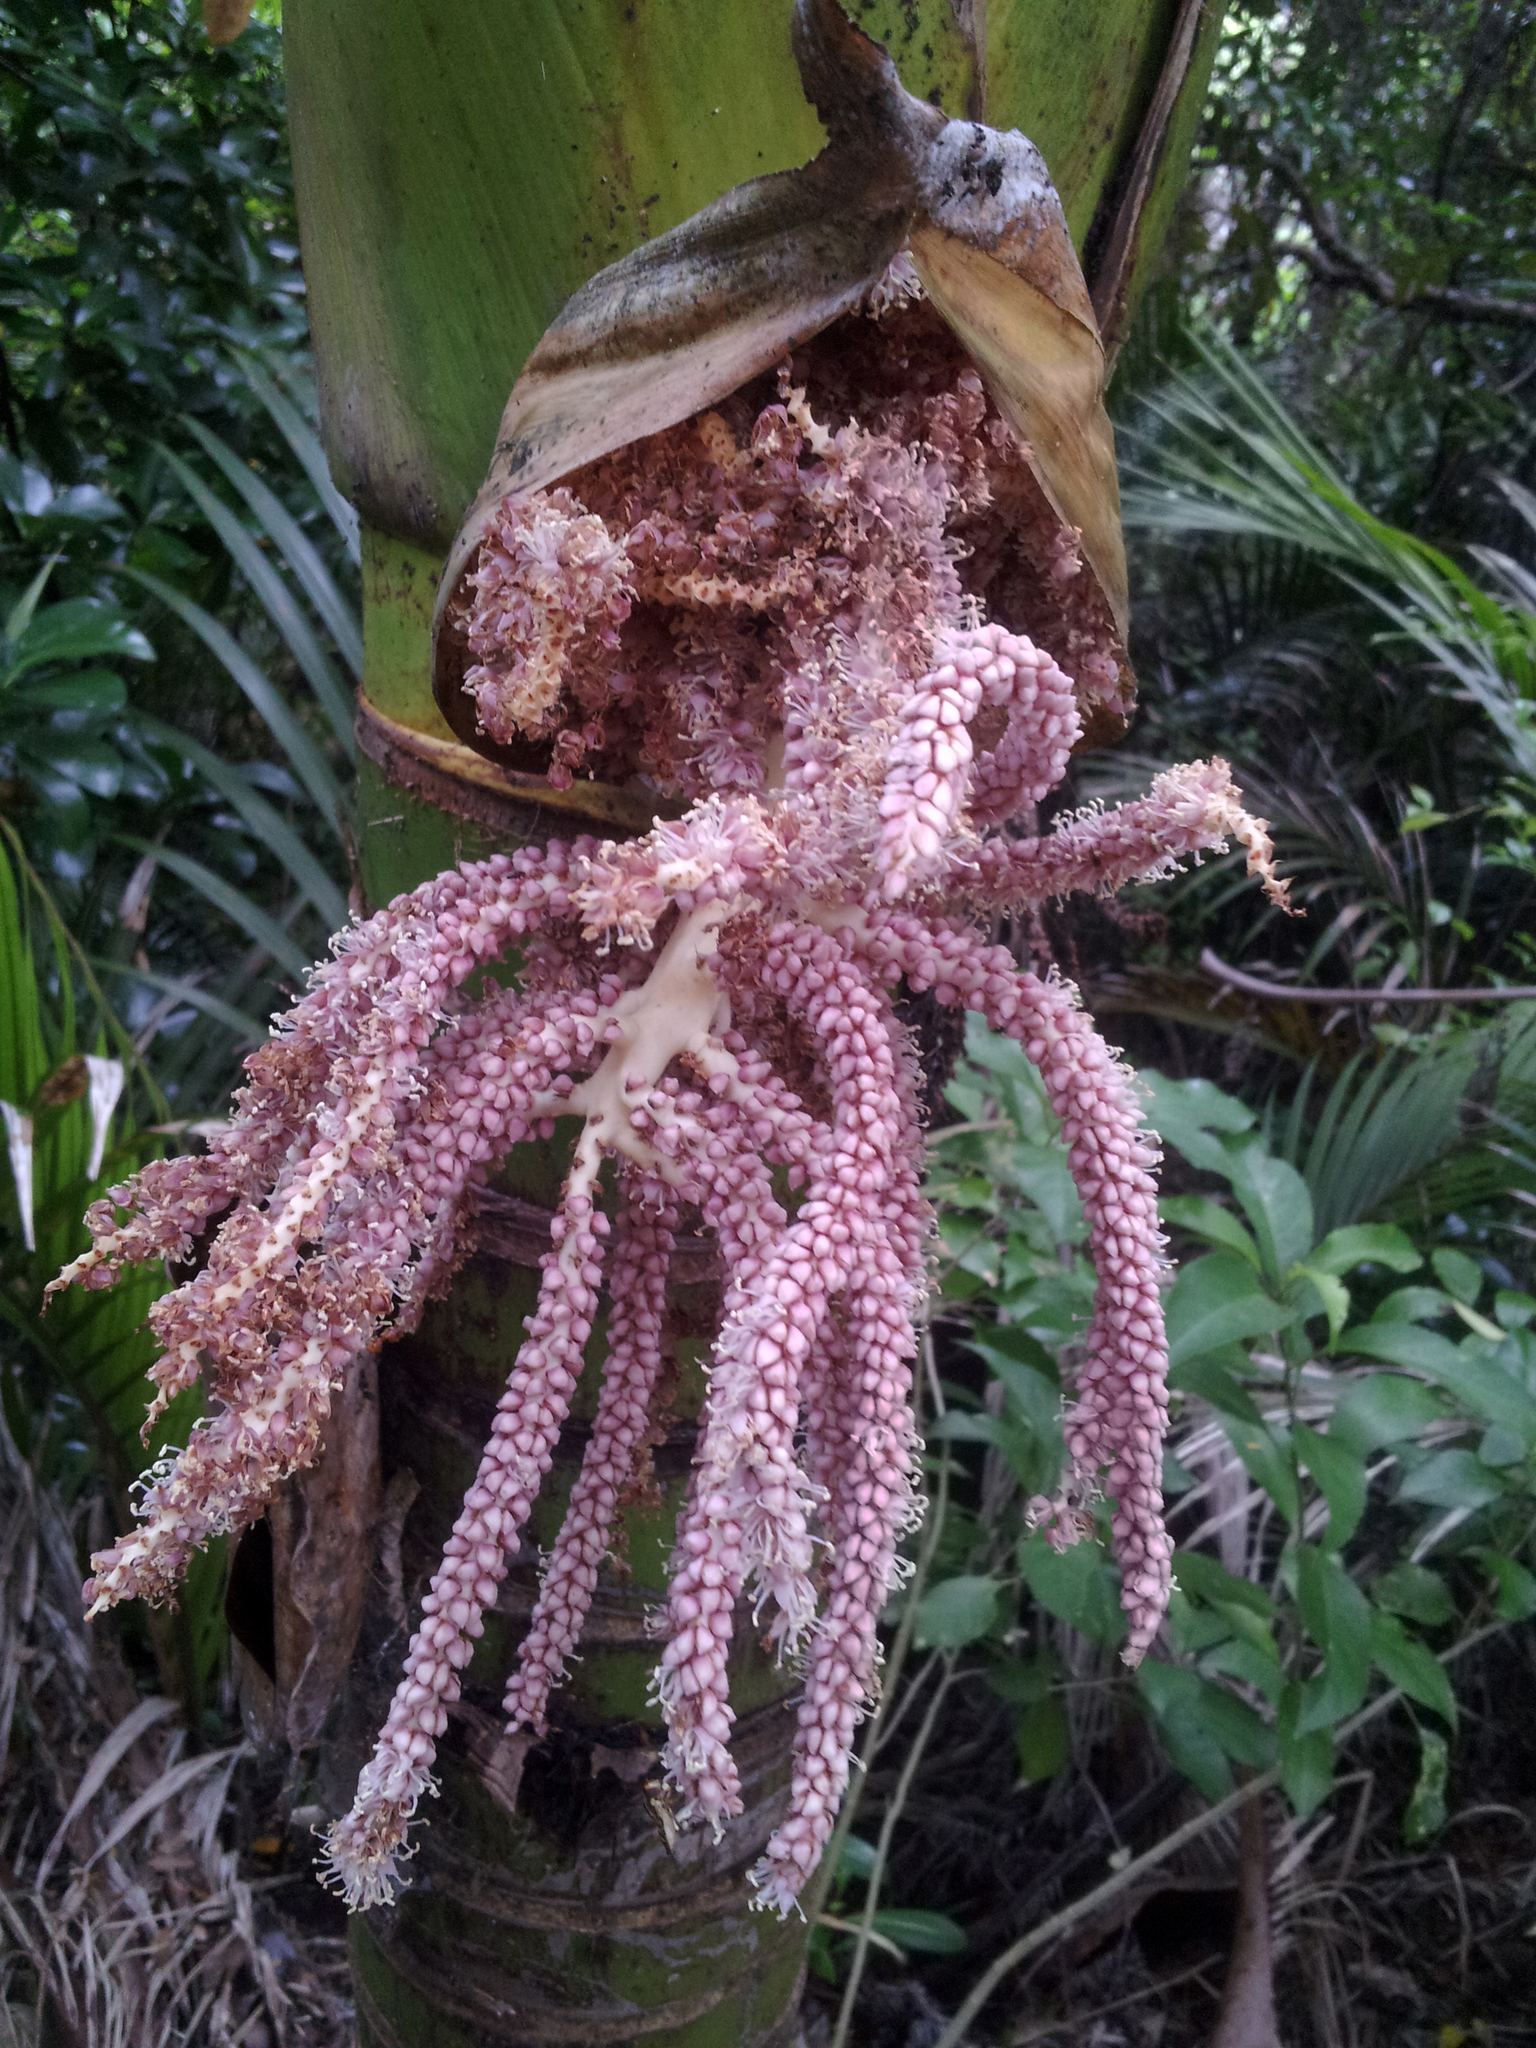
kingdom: Plantae
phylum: Tracheophyta
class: Liliopsida
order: Arecales
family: Arecaceae
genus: Rhopalostylis
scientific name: Rhopalostylis sapida
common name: Feather-duster palm
